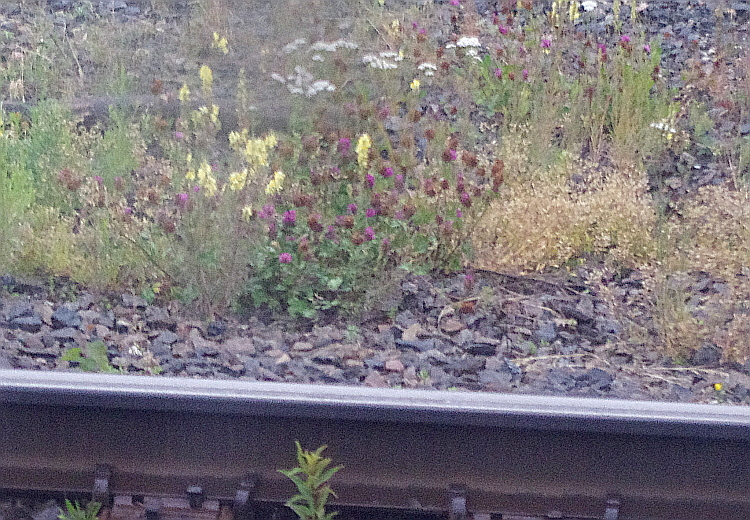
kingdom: Plantae
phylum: Tracheophyta
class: Magnoliopsida
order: Fabales
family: Fabaceae
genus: Trifolium
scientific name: Trifolium pratense
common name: Red clover
